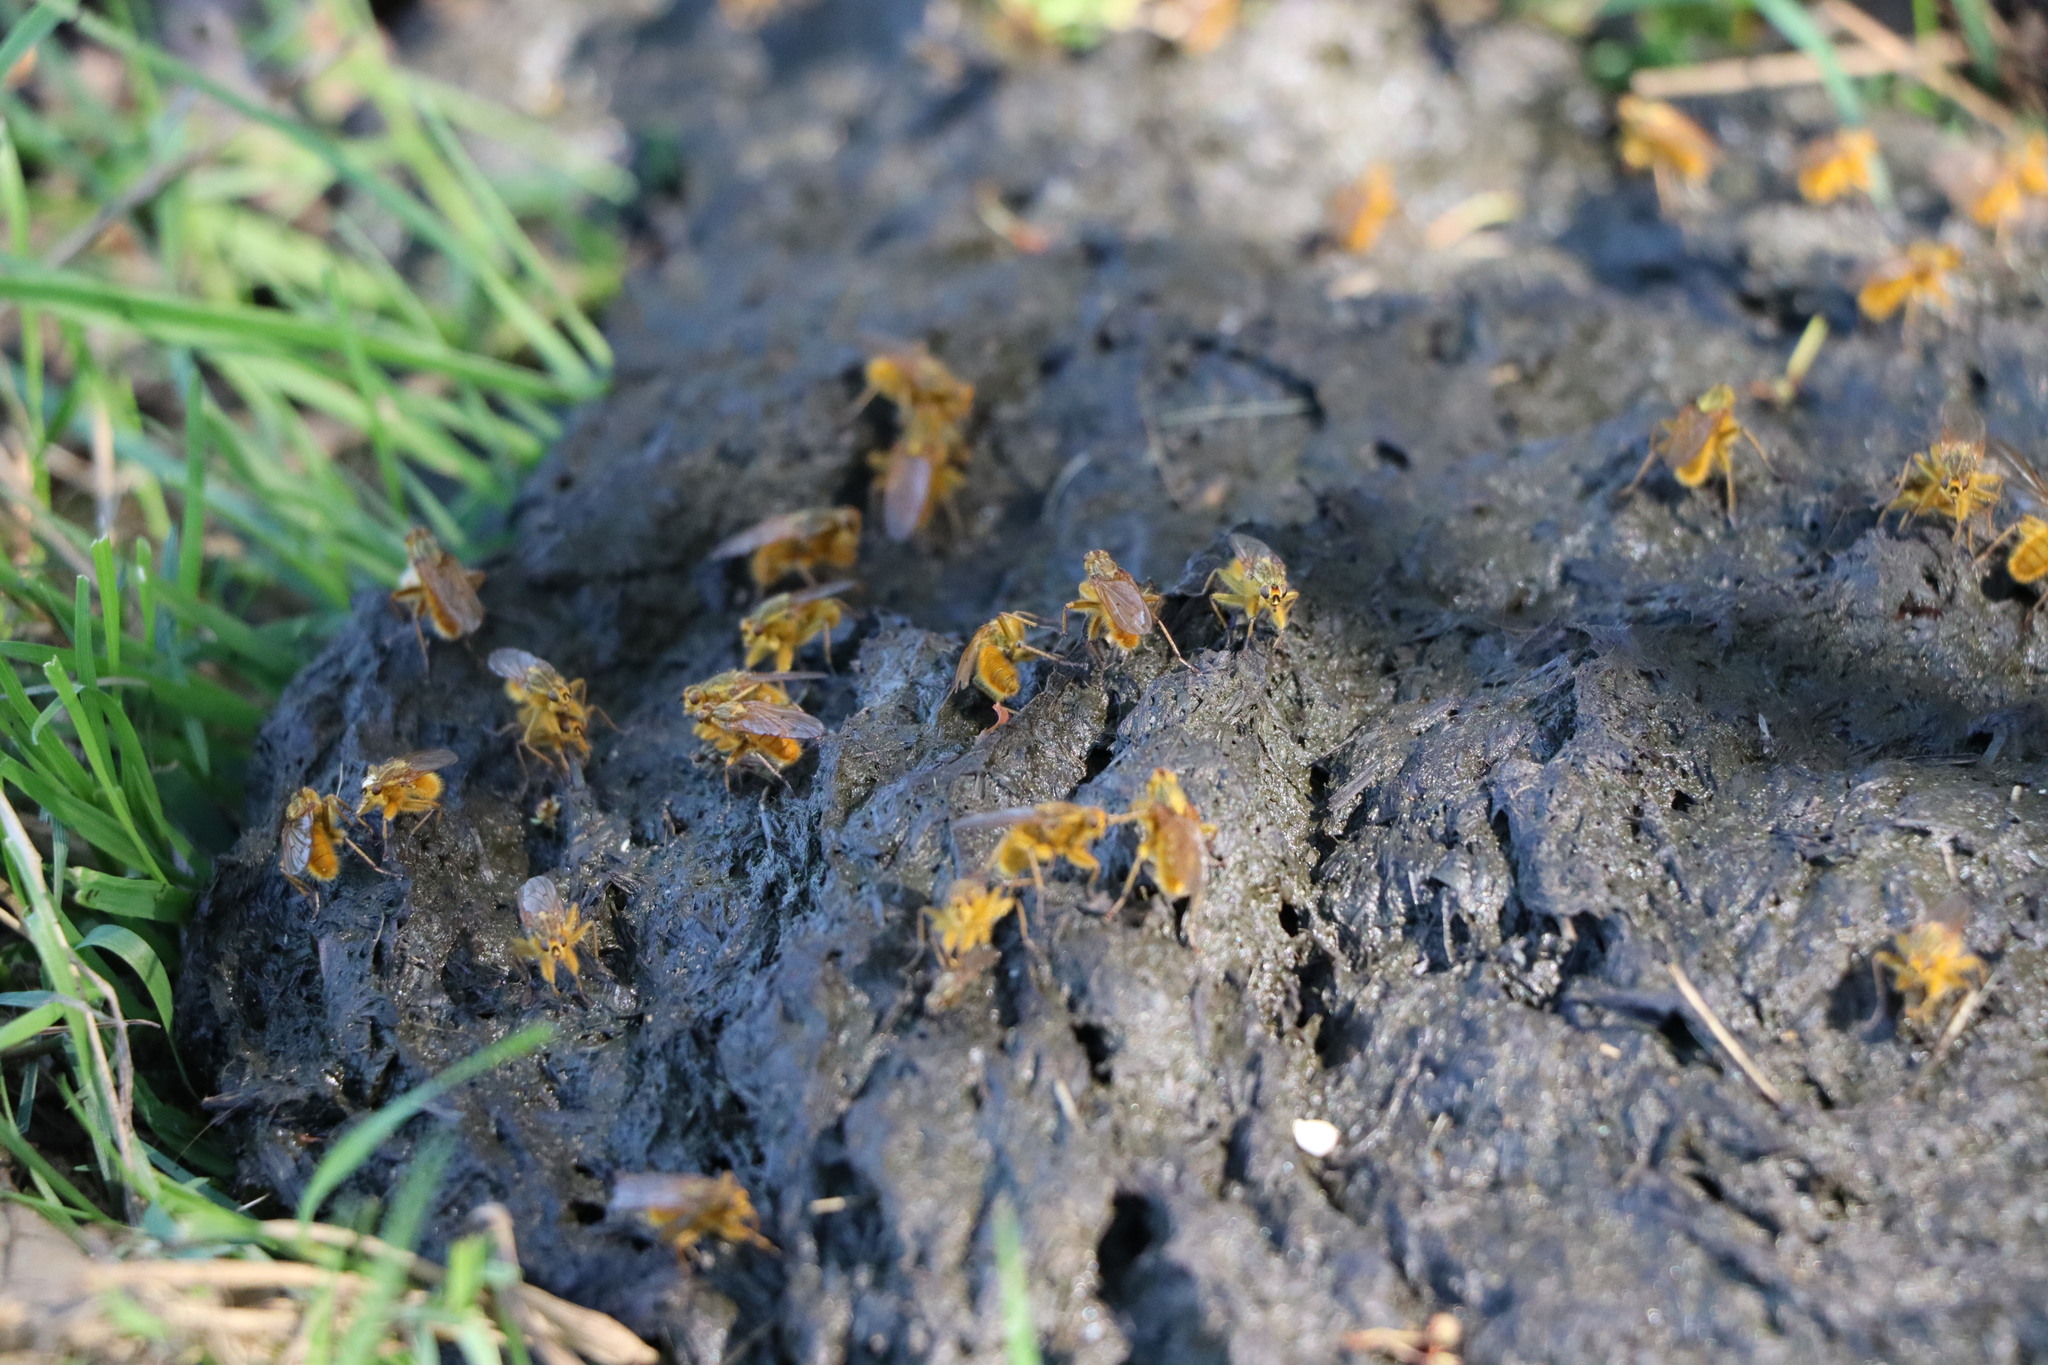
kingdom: Animalia
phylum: Arthropoda
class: Insecta
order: Diptera
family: Scathophagidae
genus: Scathophaga
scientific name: Scathophaga stercoraria
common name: Yellow dung fly
